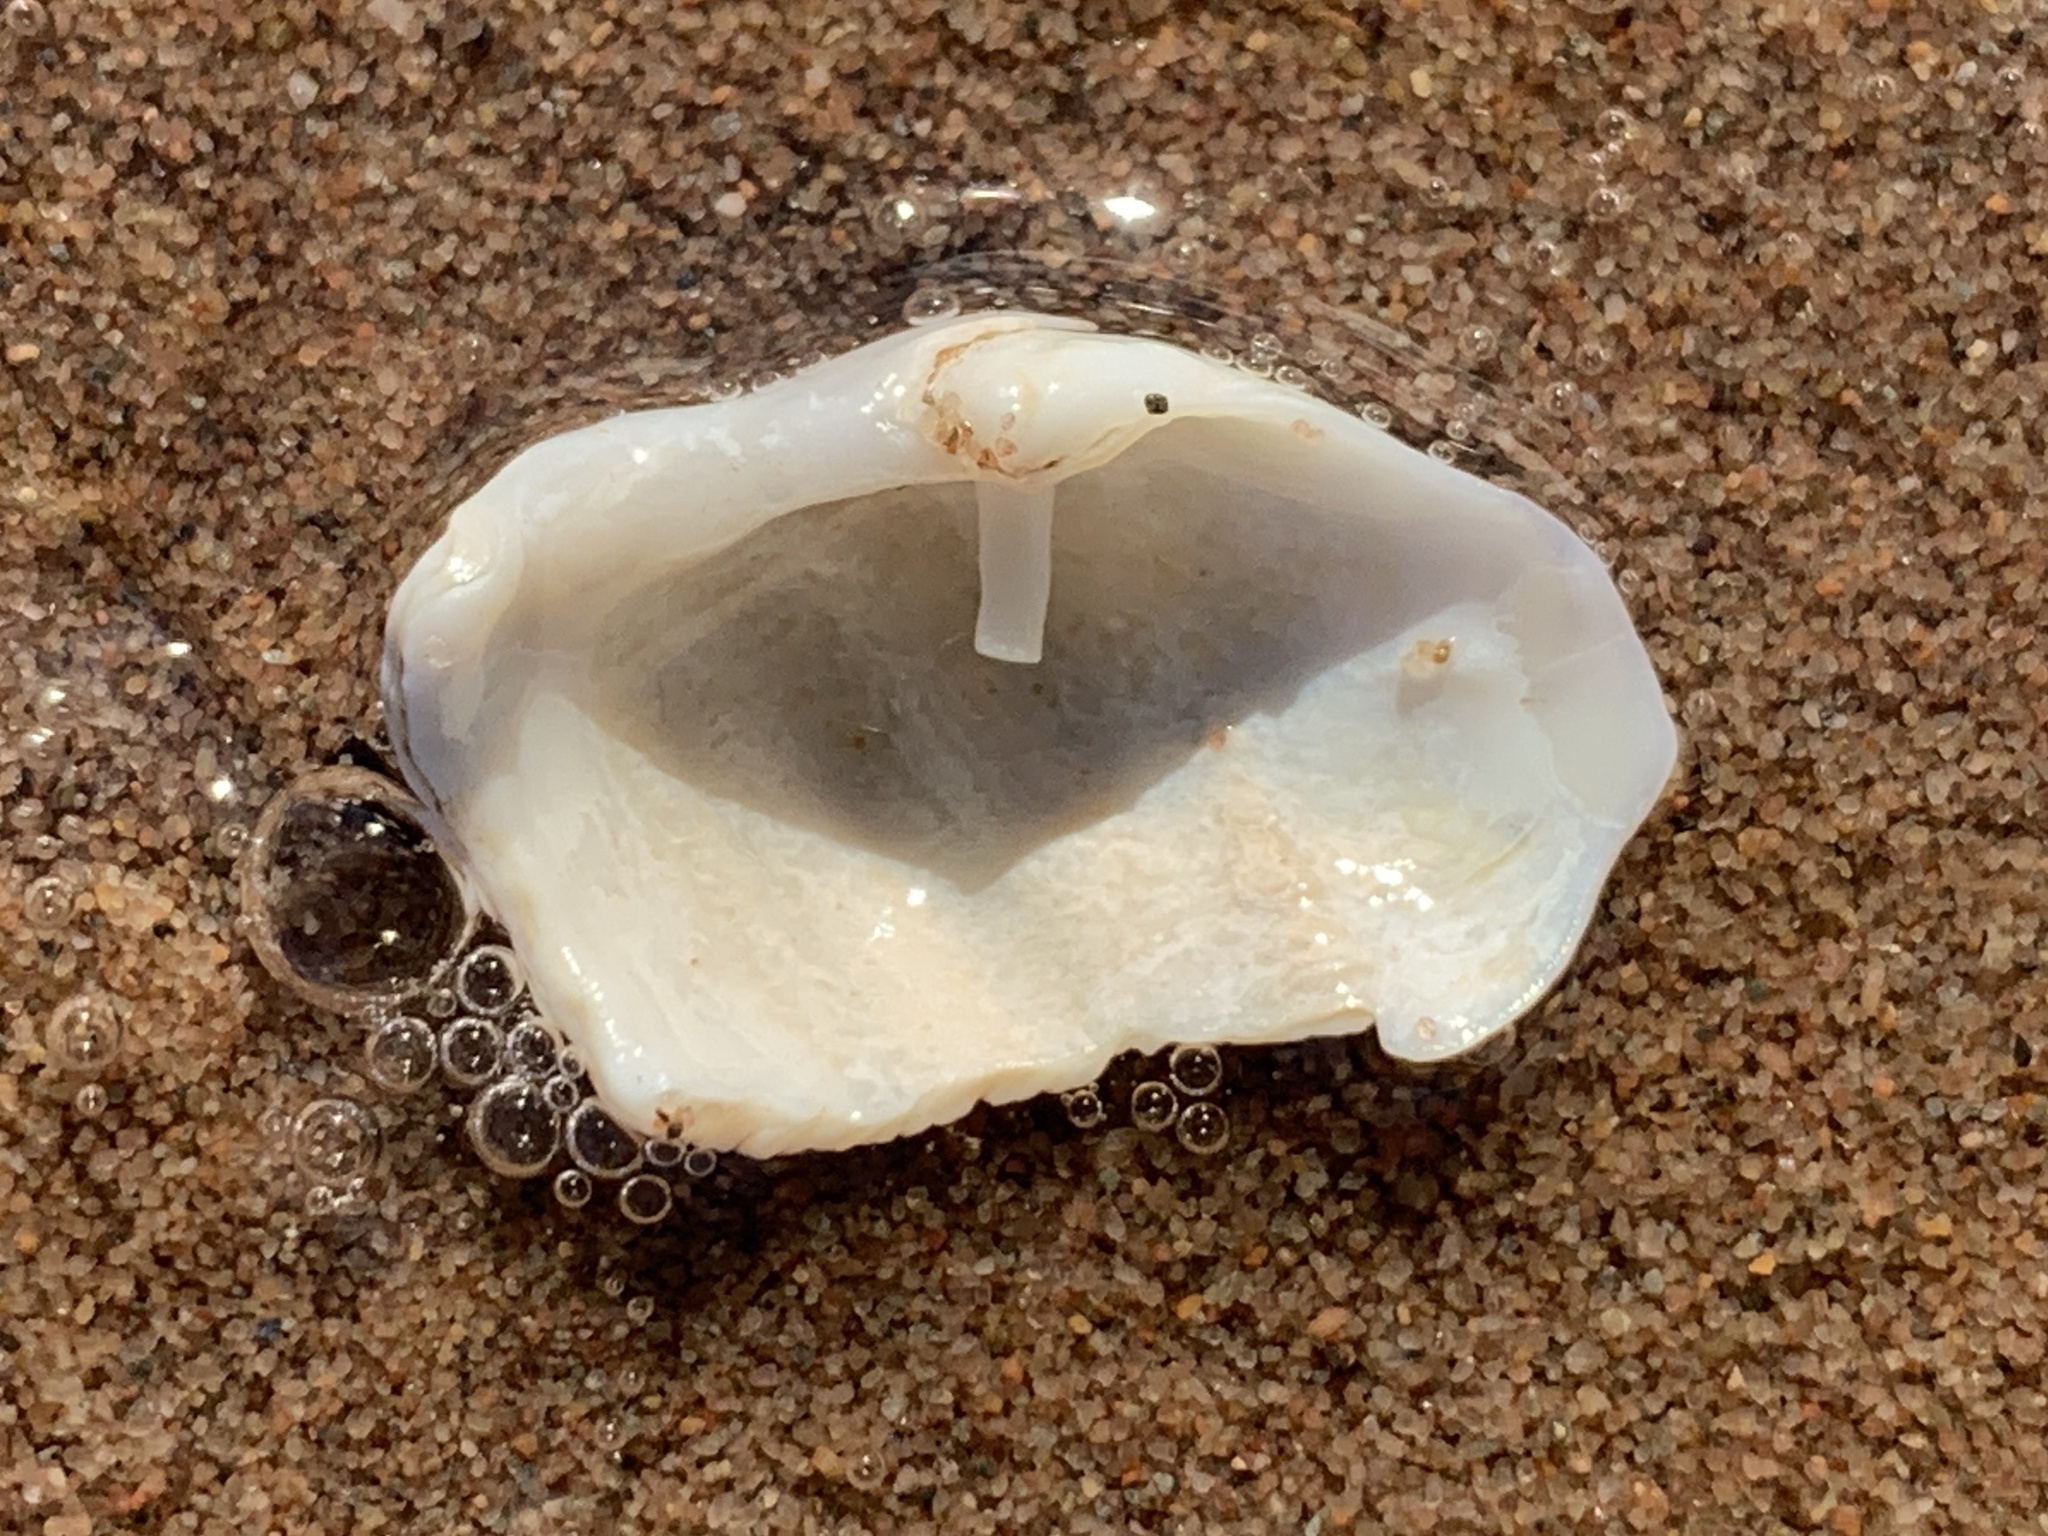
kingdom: Animalia
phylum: Mollusca
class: Bivalvia
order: Myida
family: Pholadidae
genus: Zirfaea
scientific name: Zirfaea crispata
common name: Oval piddock
